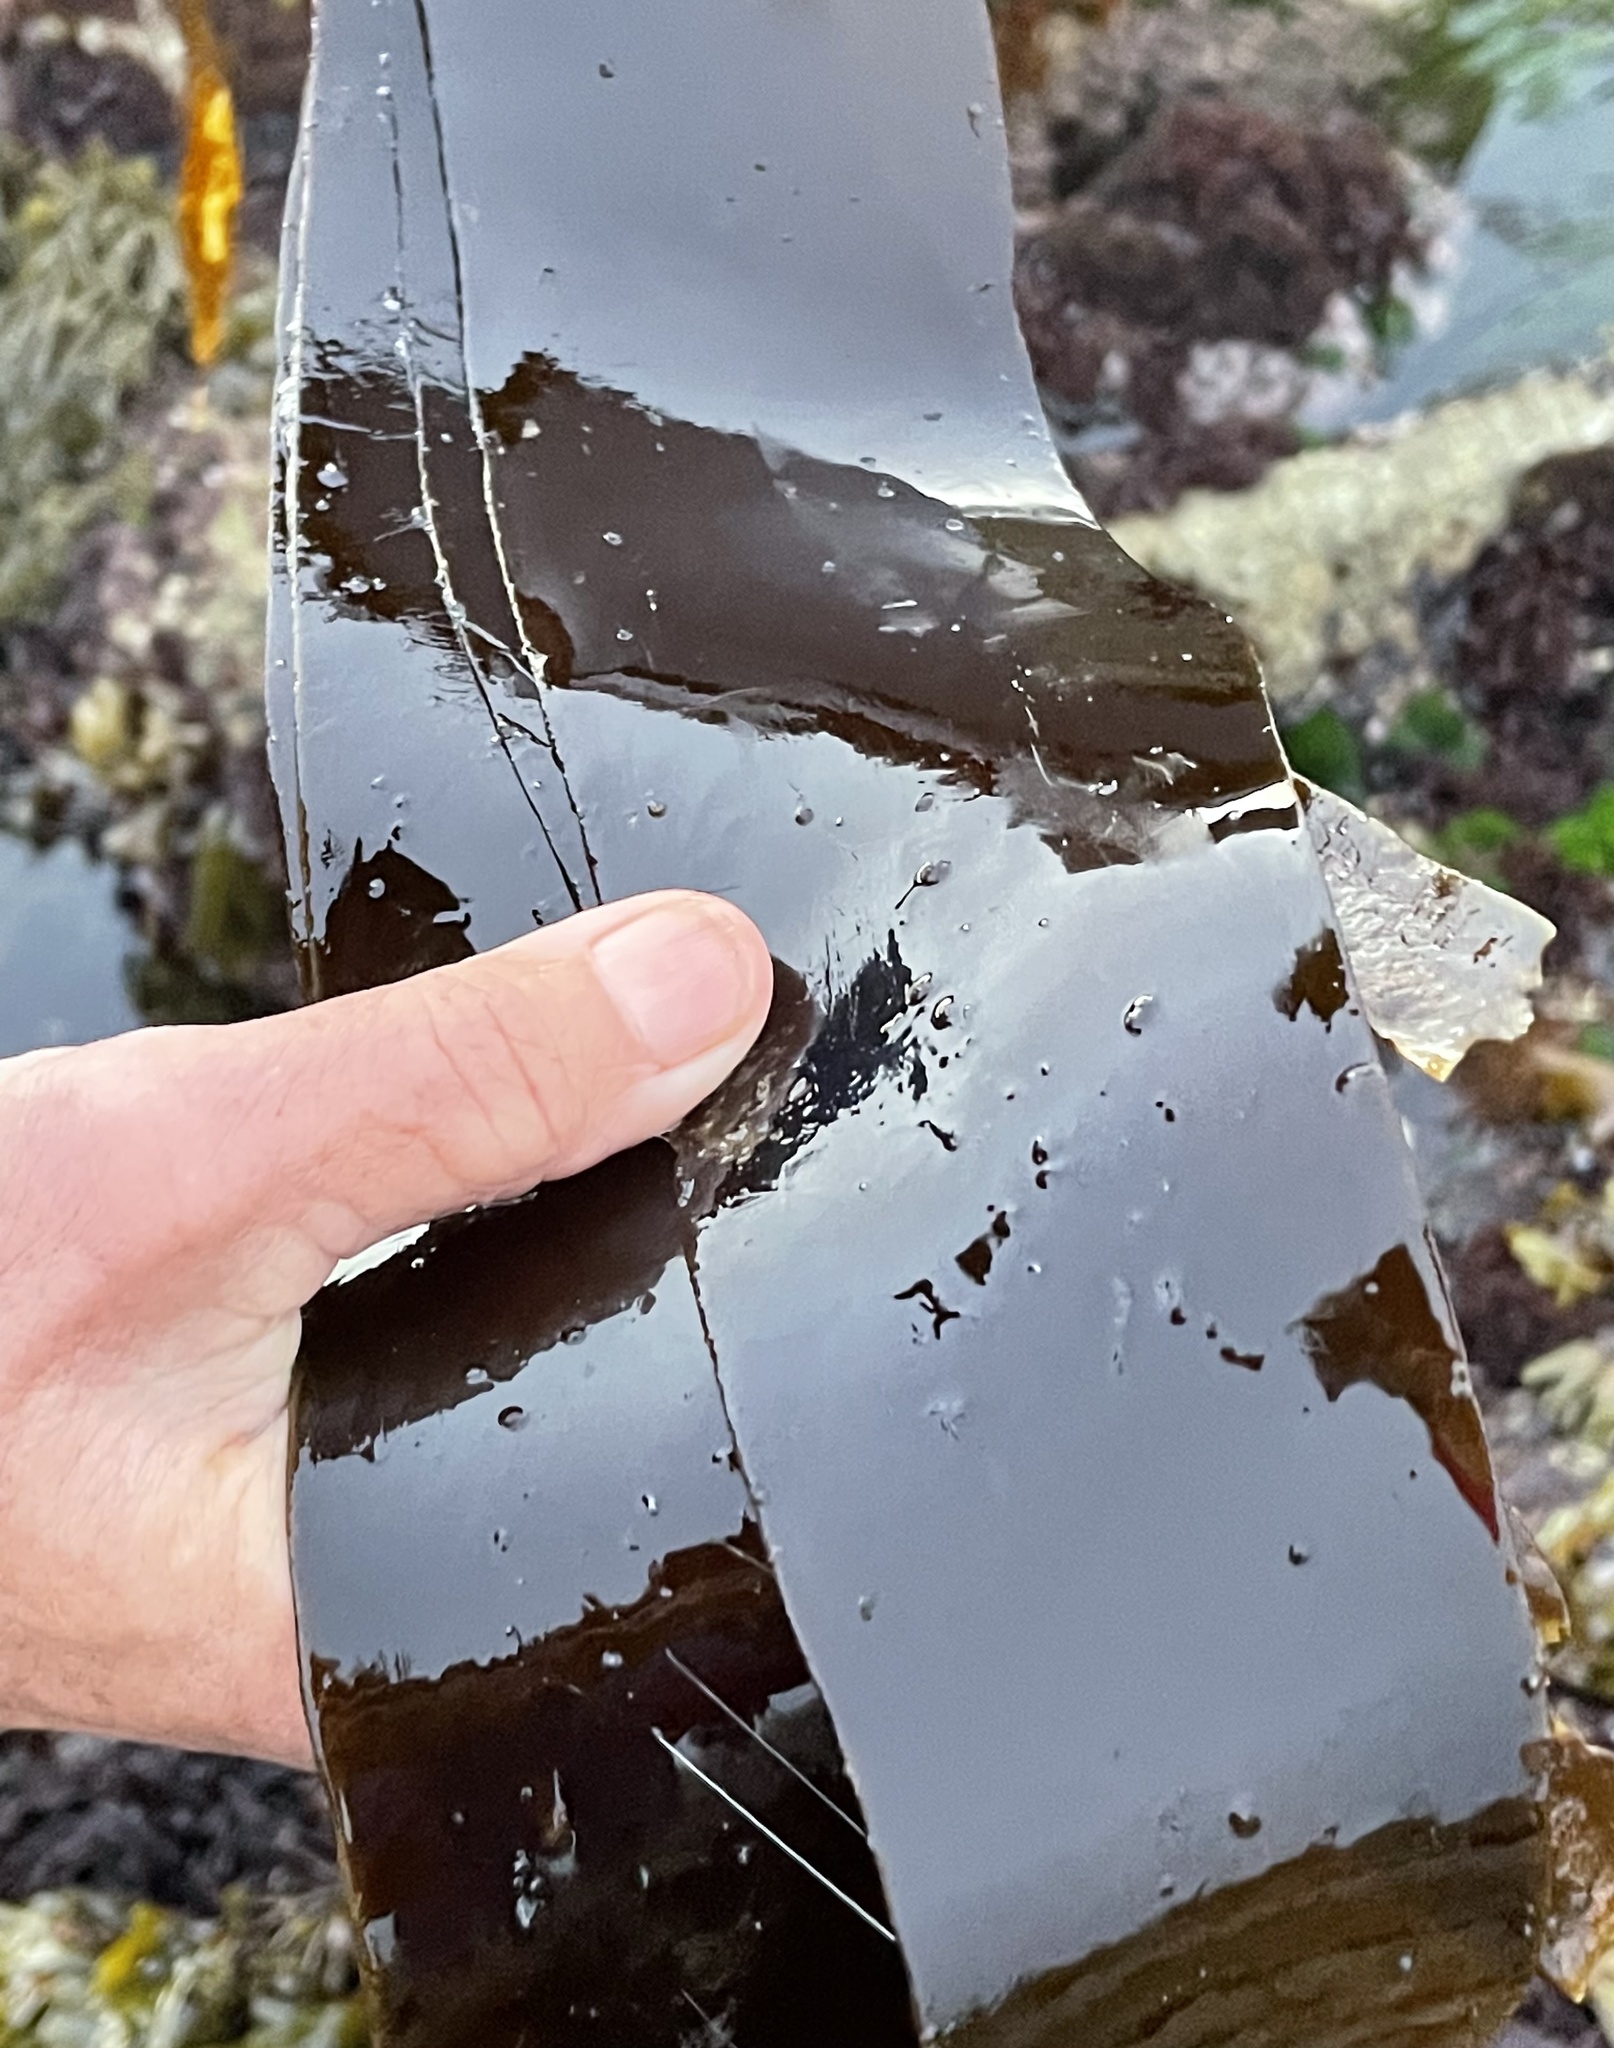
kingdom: Chromista
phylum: Ochrophyta
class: Phaeophyceae
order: Laminariales
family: Alariaceae
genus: Pterygophora
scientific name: Pterygophora californica
